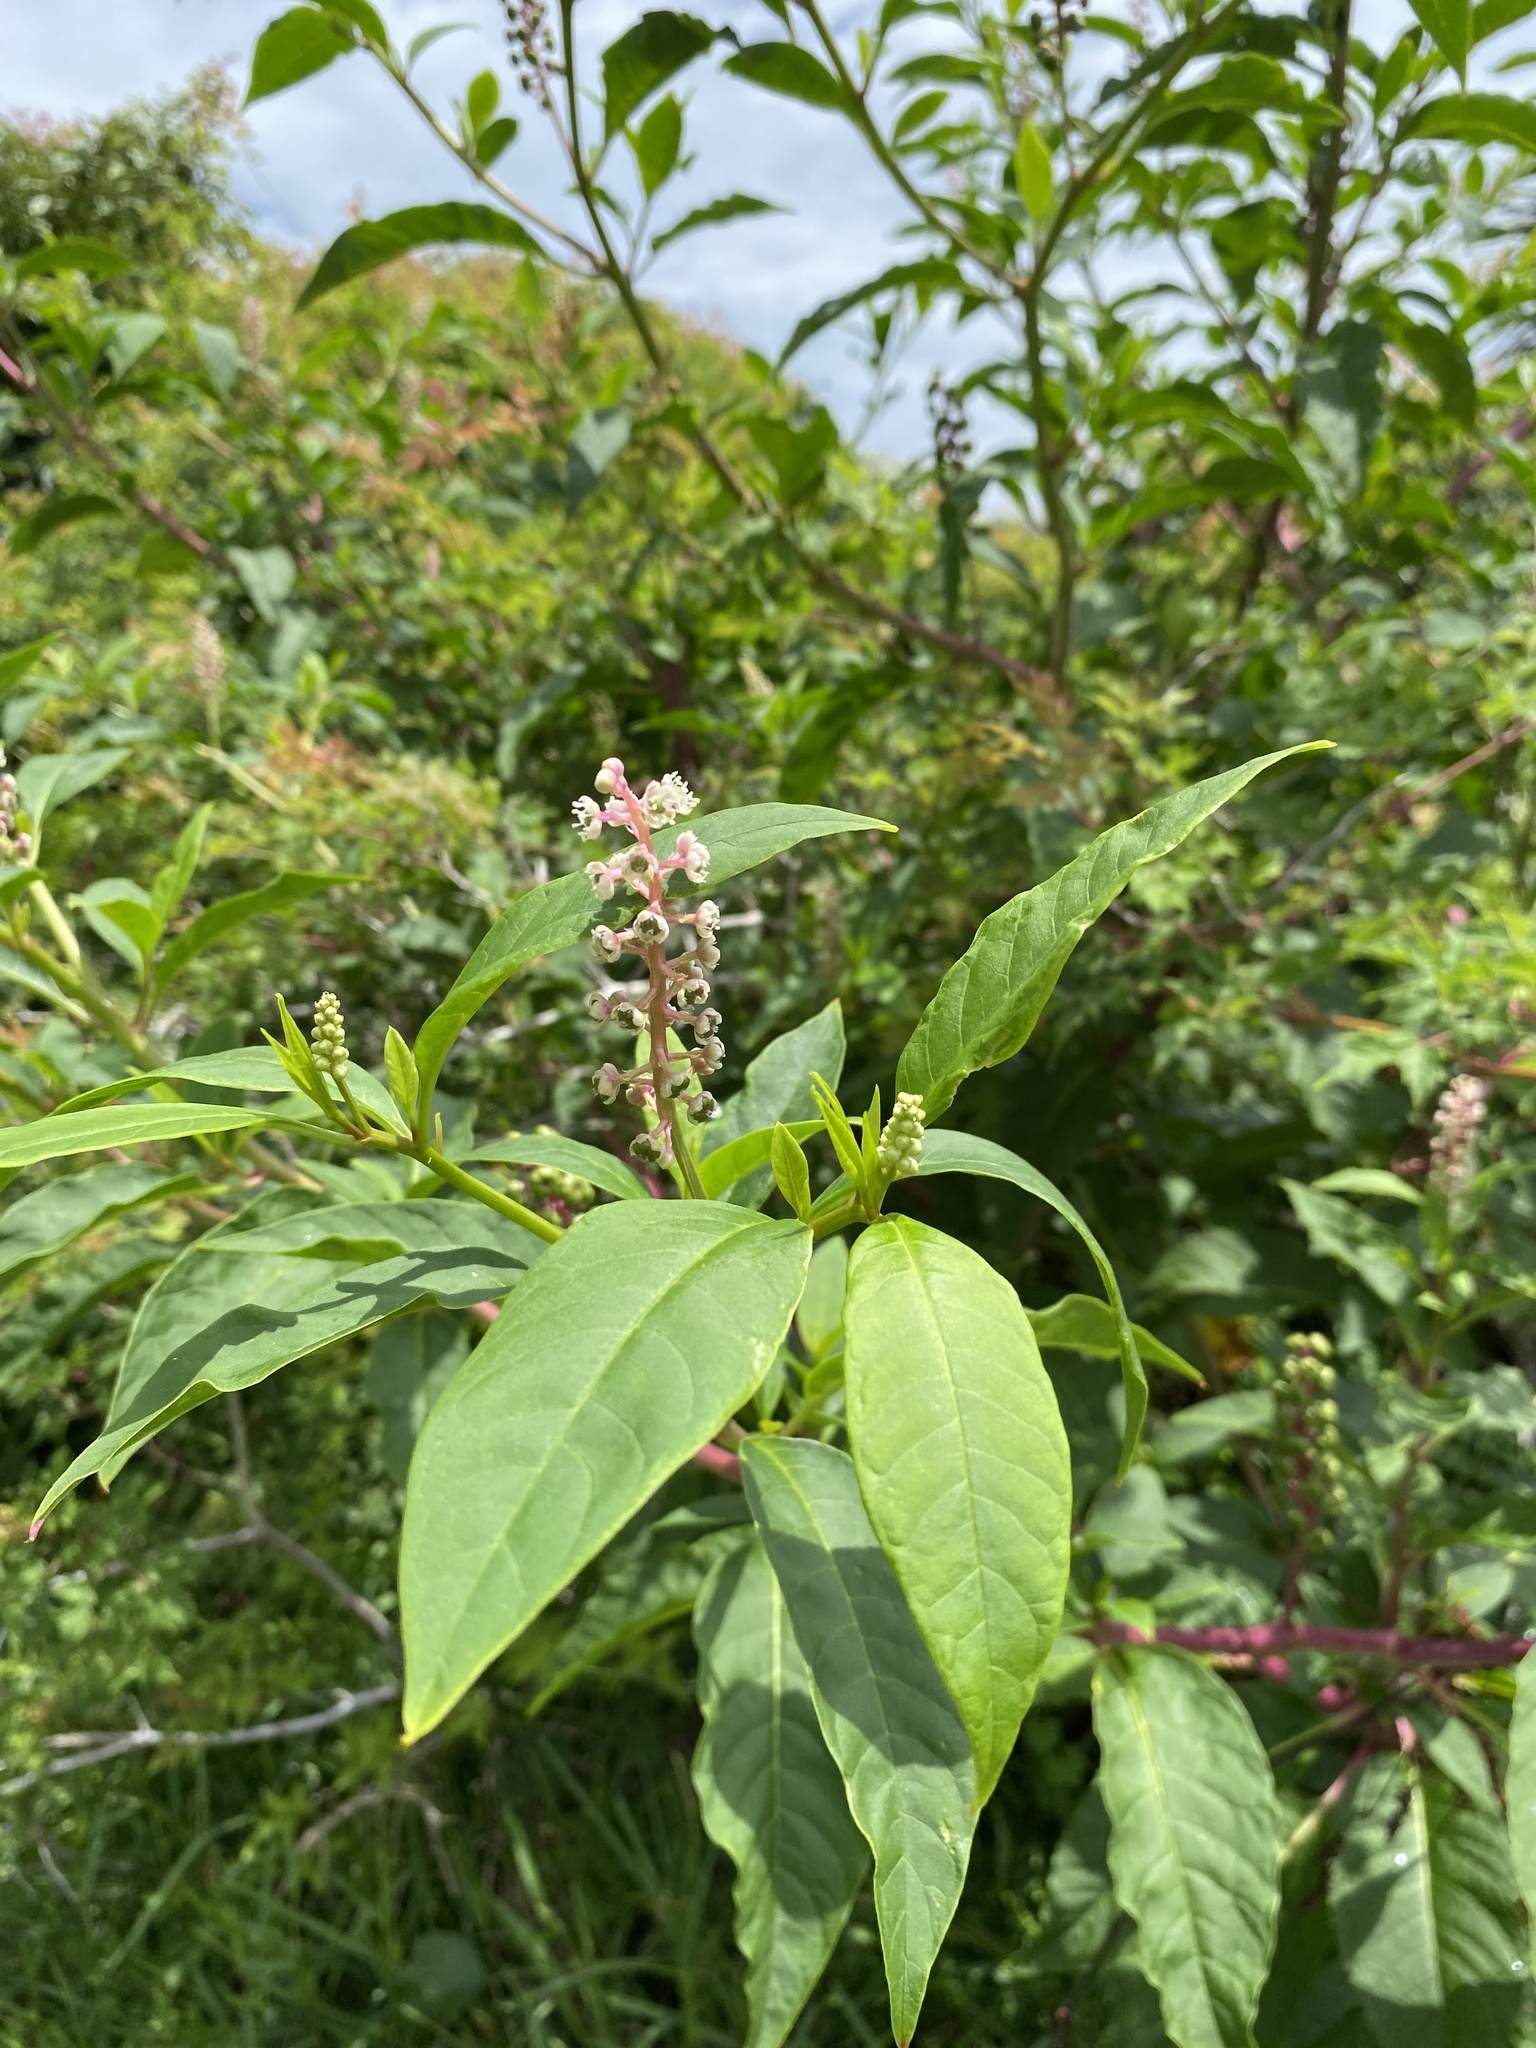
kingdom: Plantae
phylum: Tracheophyta
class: Magnoliopsida
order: Caryophyllales
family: Phytolaccaceae
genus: Phytolacca
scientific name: Phytolacca americana
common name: American pokeweed
